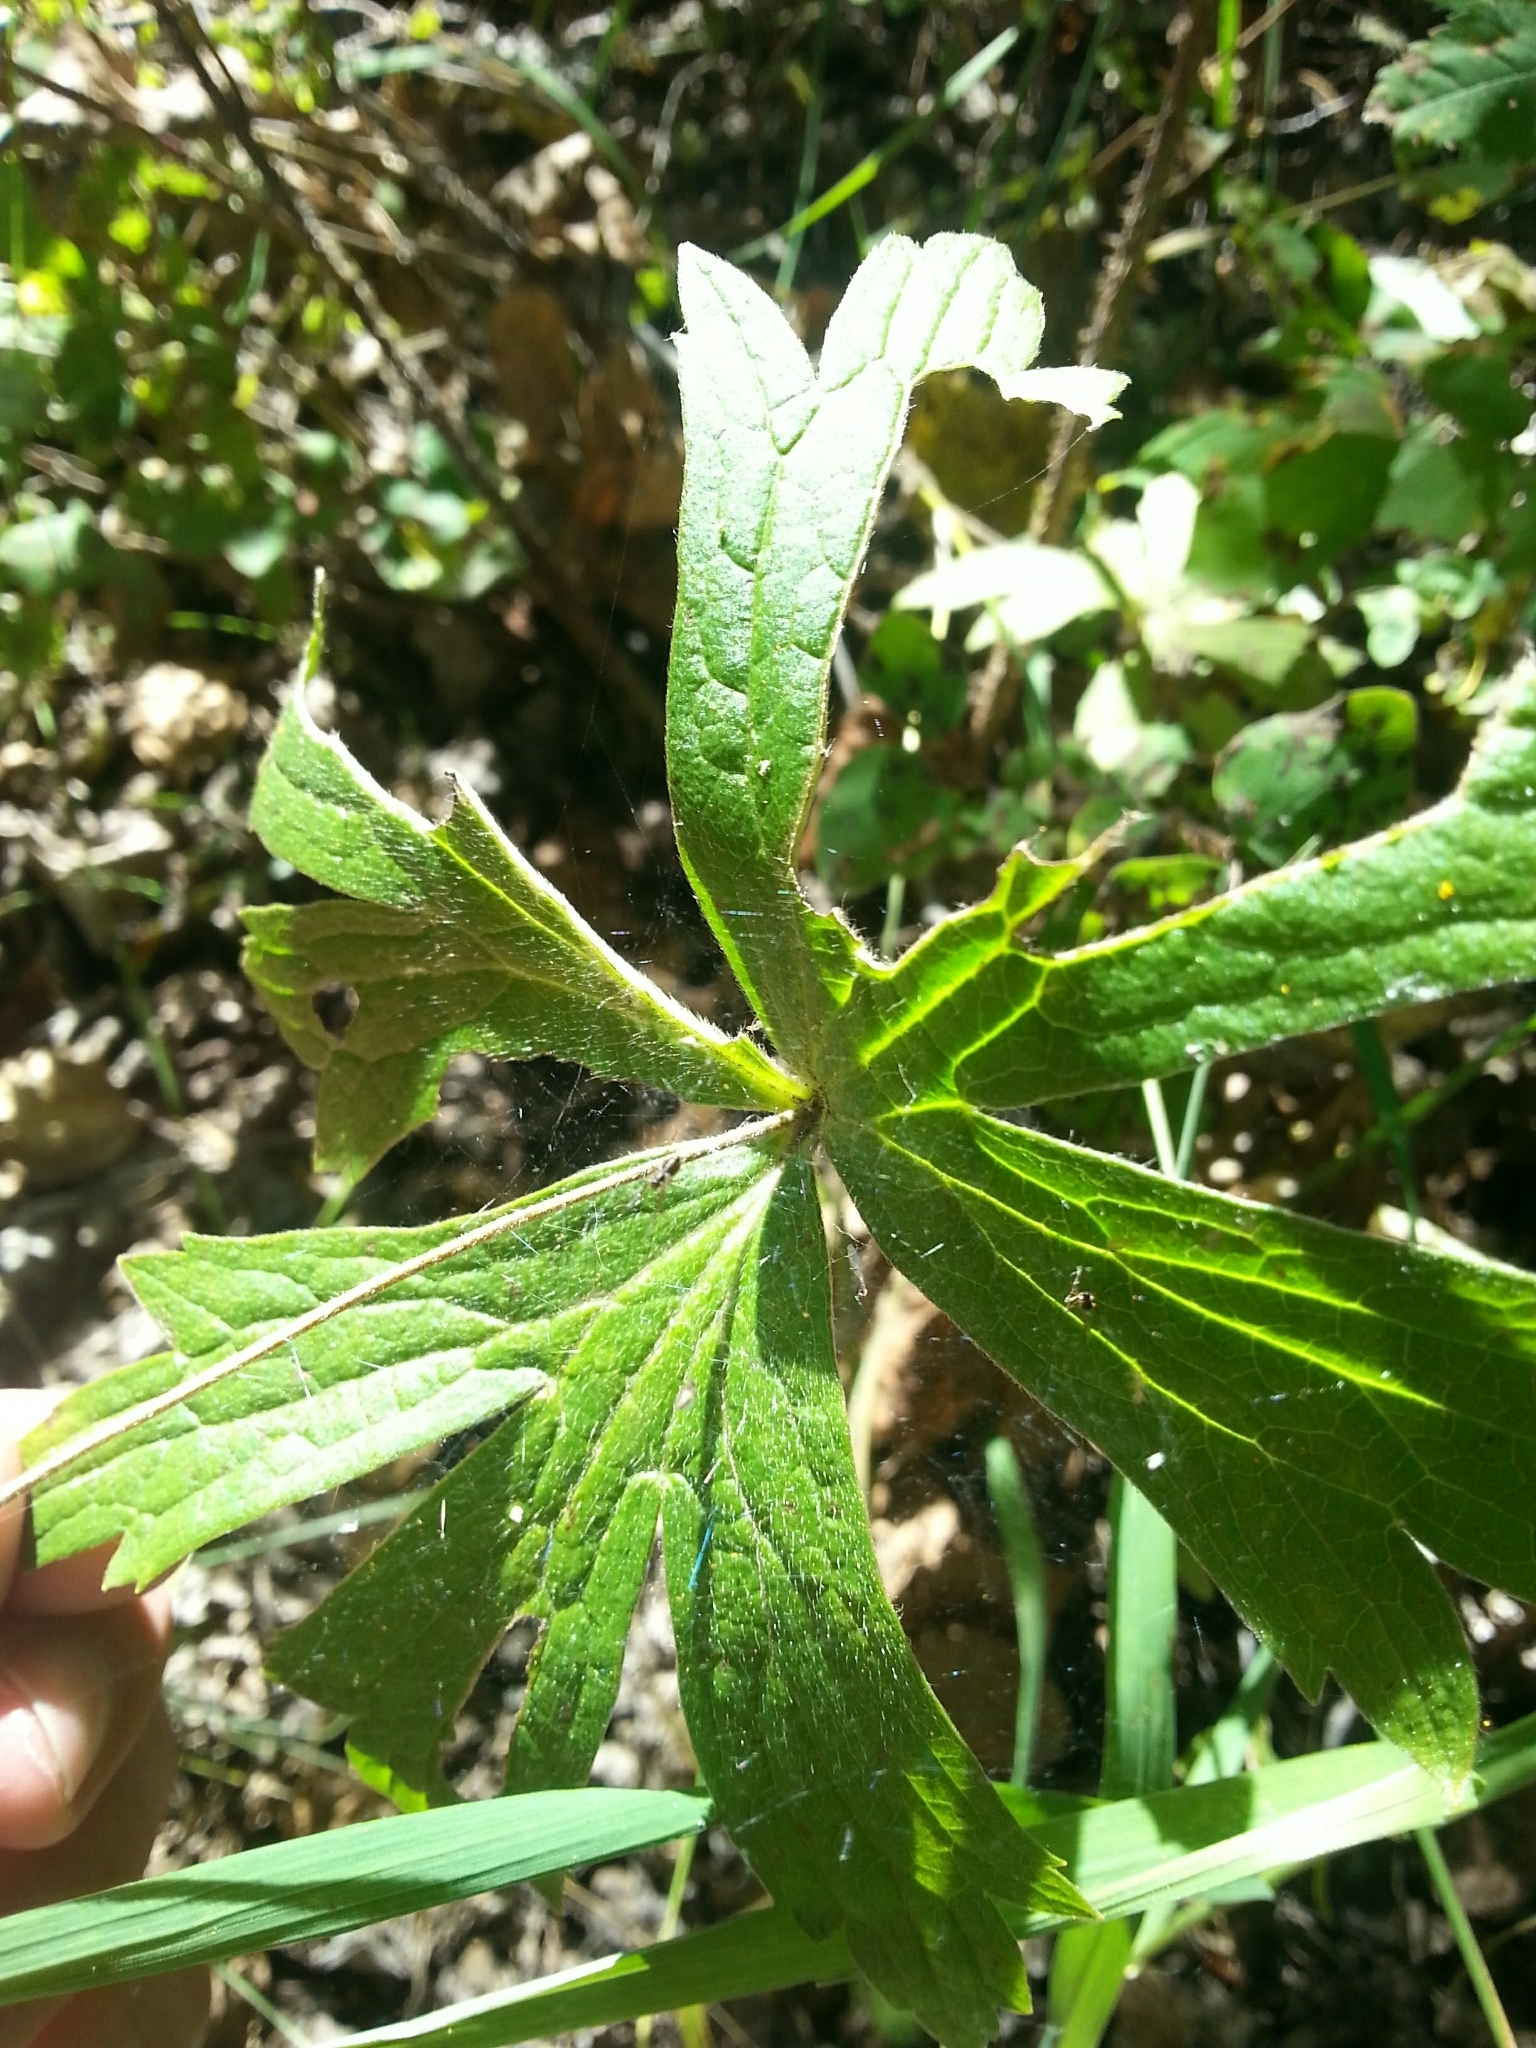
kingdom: Plantae
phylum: Tracheophyta
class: Magnoliopsida
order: Ranunculales
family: Ranunculaceae
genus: Anemonastrum
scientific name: Anemonastrum canadense
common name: Canada anemone
